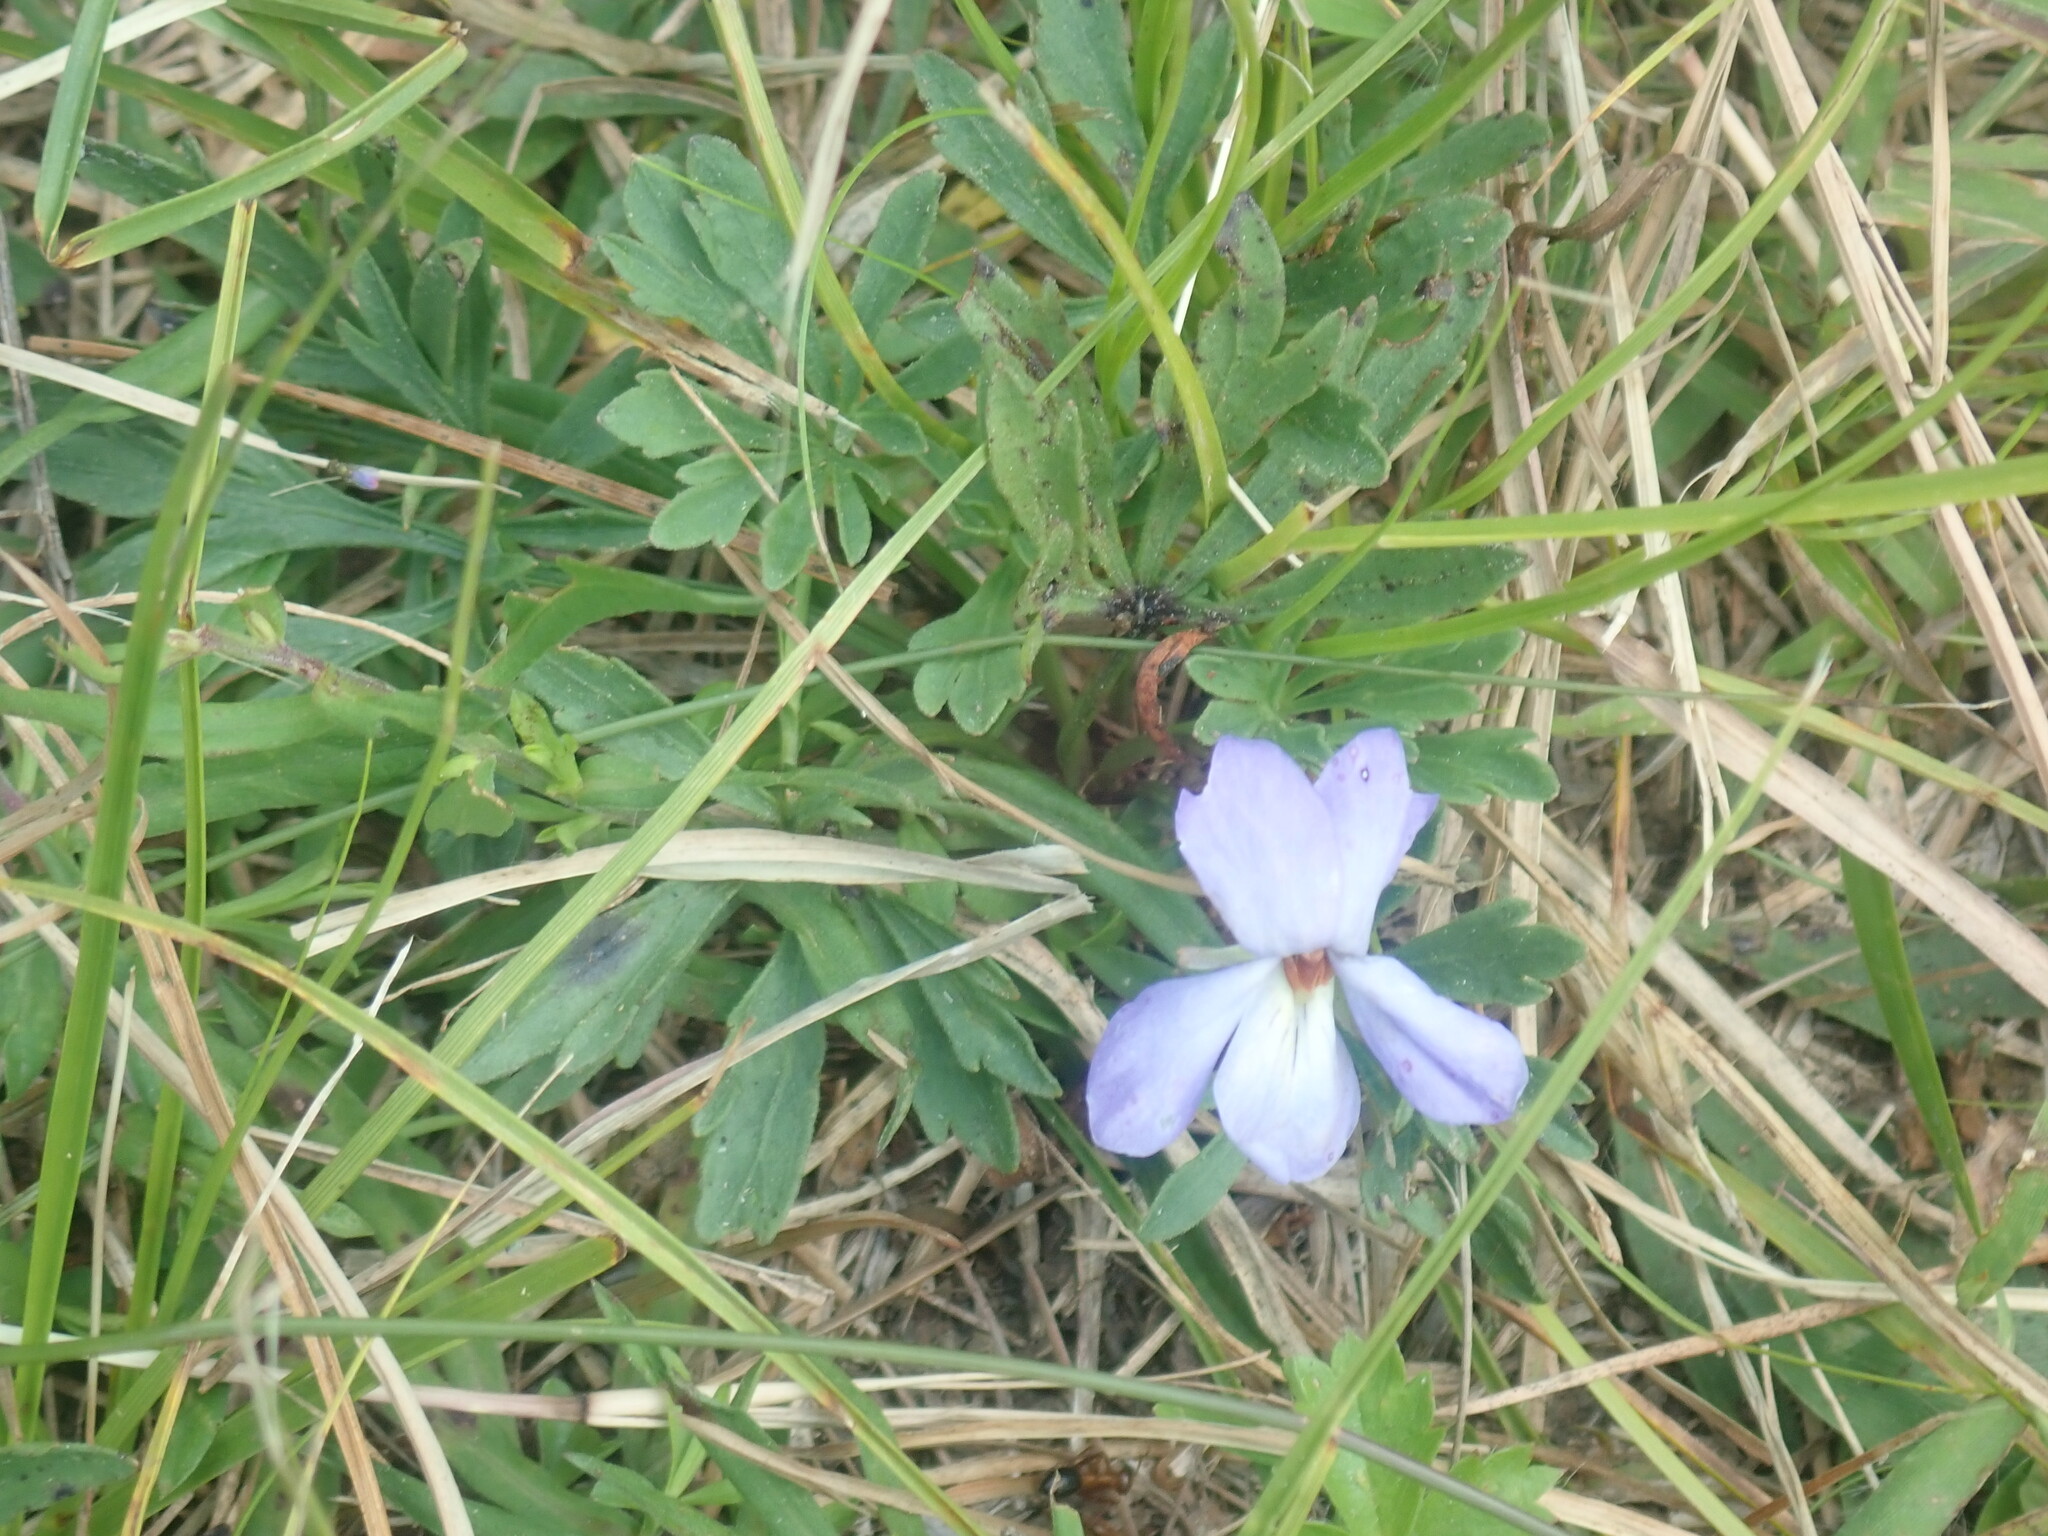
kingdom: Plantae
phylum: Tracheophyta
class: Magnoliopsida
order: Malpighiales
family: Violaceae
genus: Viola
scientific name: Viola pedata
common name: Pansy violet
